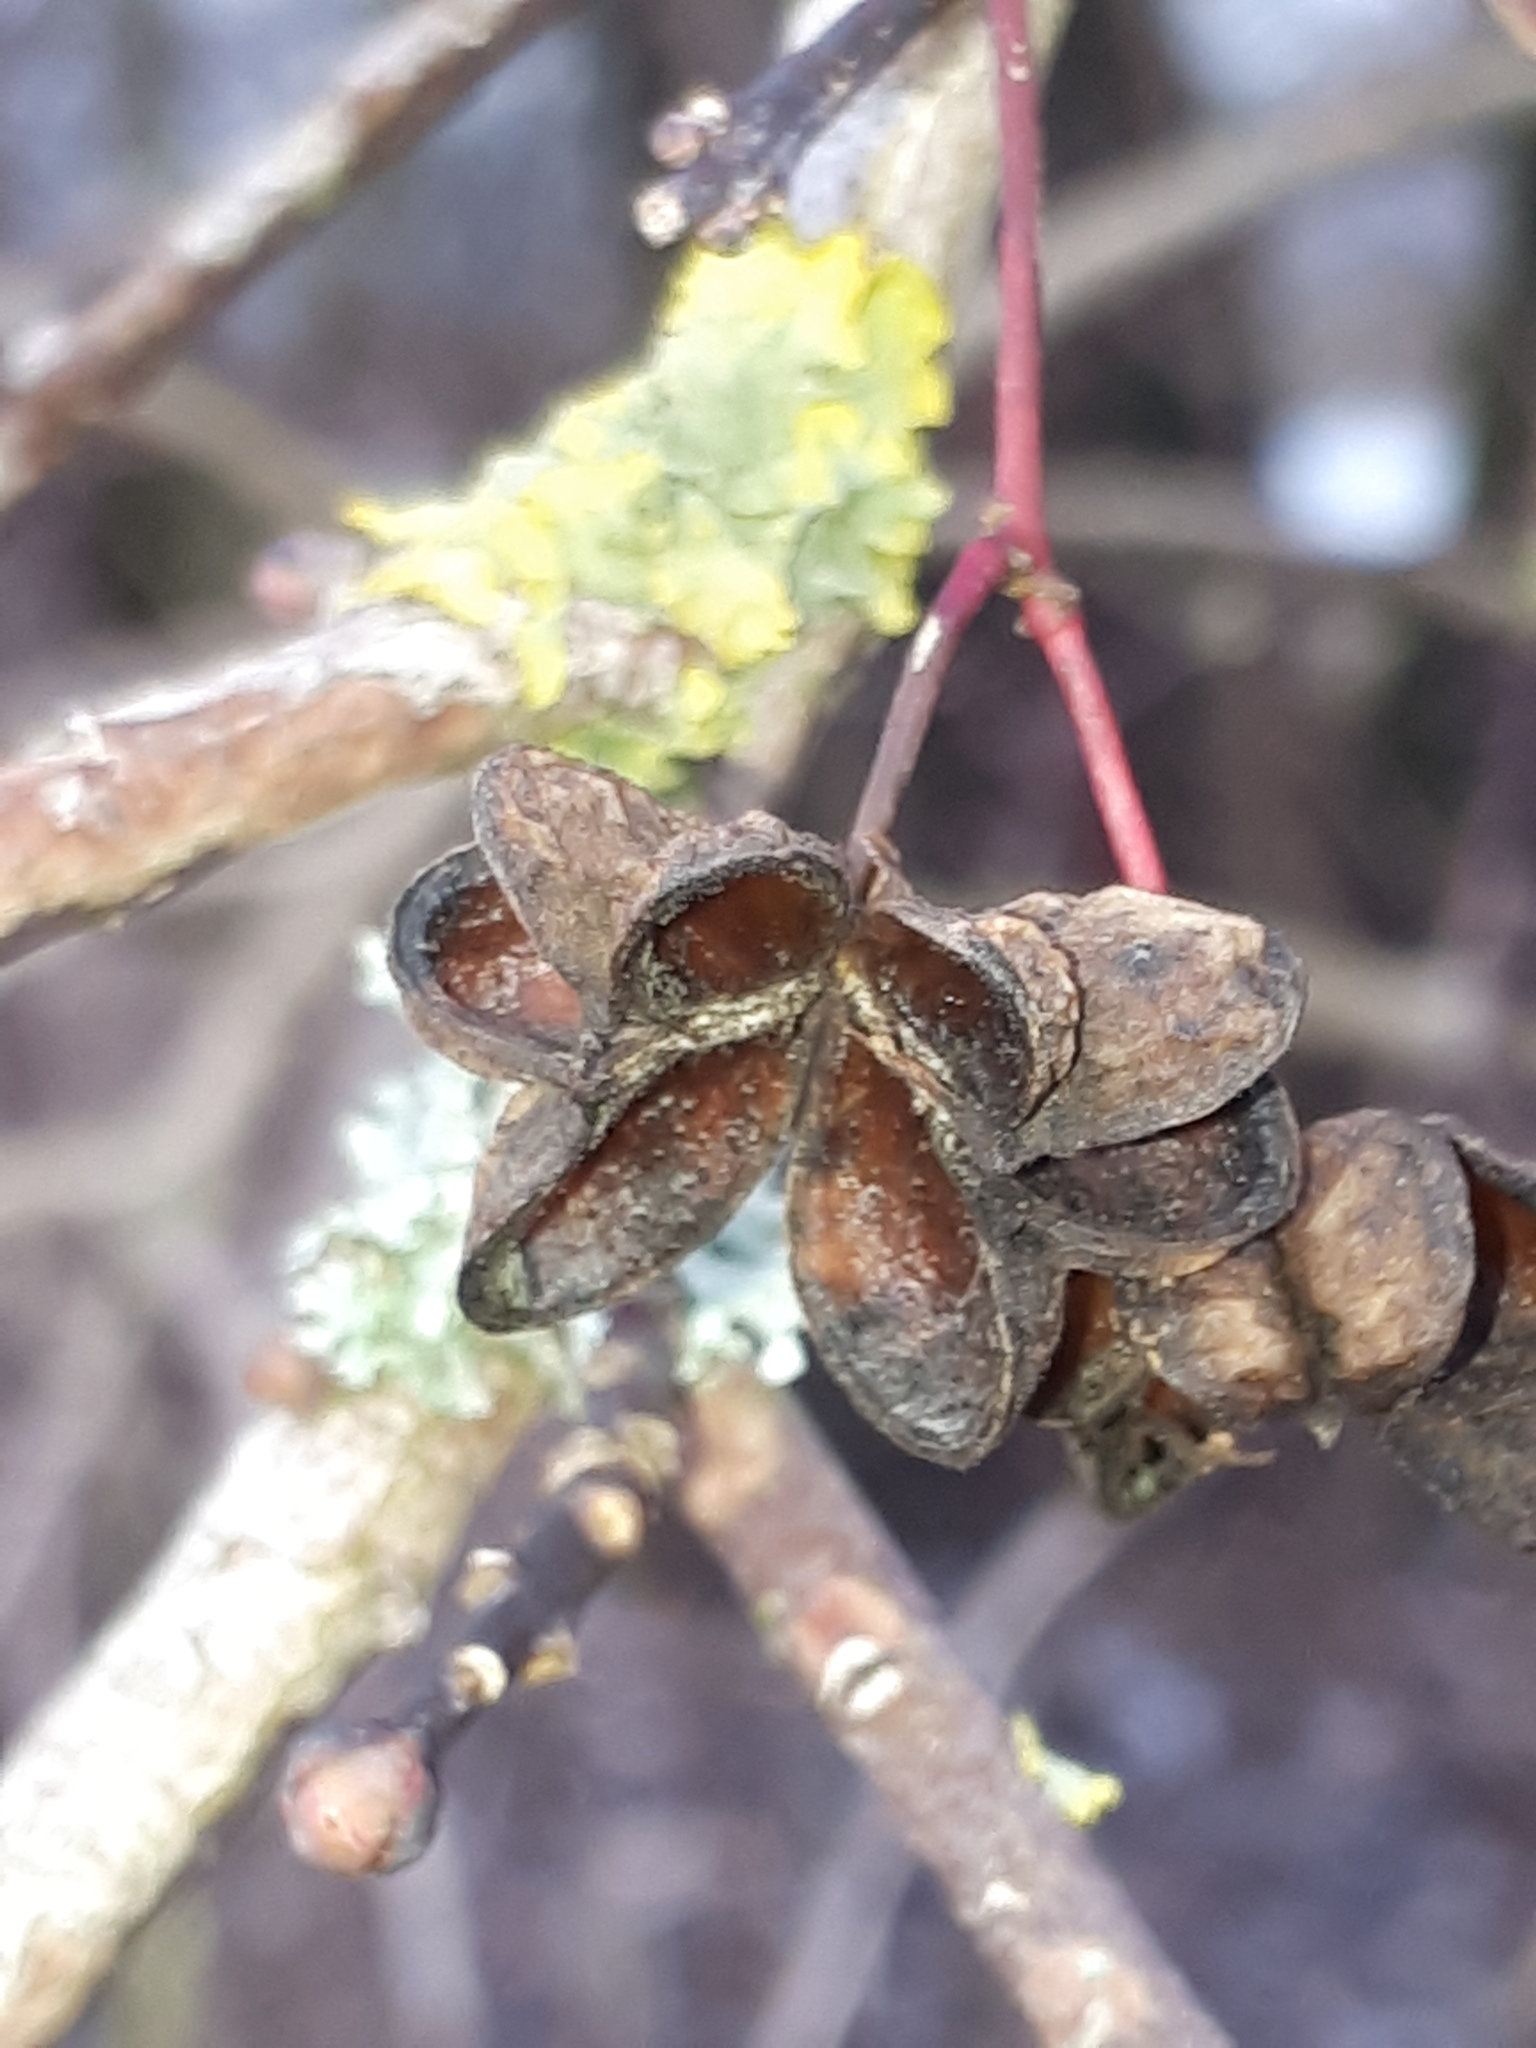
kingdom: Plantae
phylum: Tracheophyta
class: Magnoliopsida
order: Celastrales
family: Celastraceae
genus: Euonymus
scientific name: Euonymus europaeus
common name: Spindle
